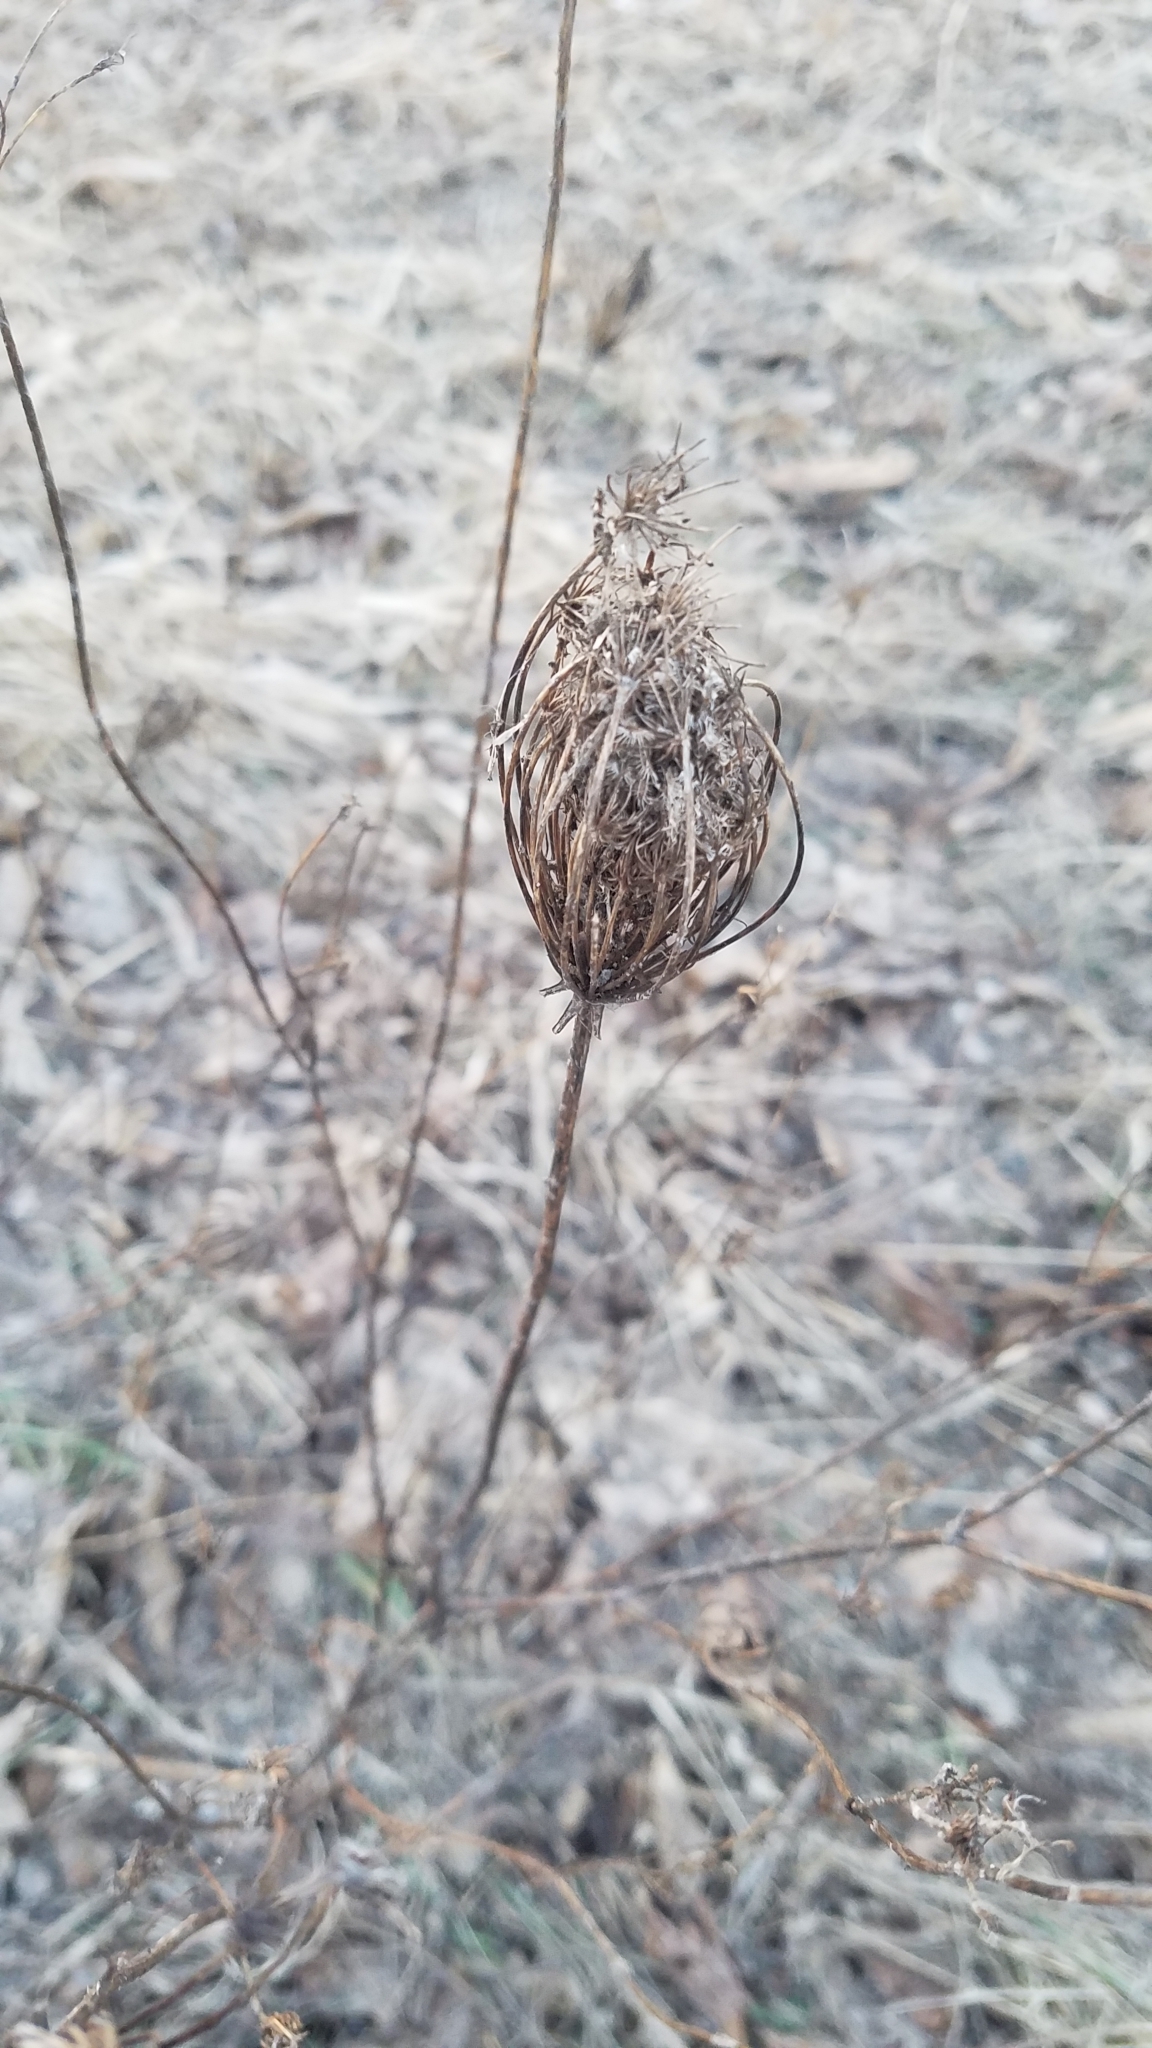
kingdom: Plantae
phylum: Tracheophyta
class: Magnoliopsida
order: Apiales
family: Apiaceae
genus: Daucus
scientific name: Daucus carota
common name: Wild carrot
